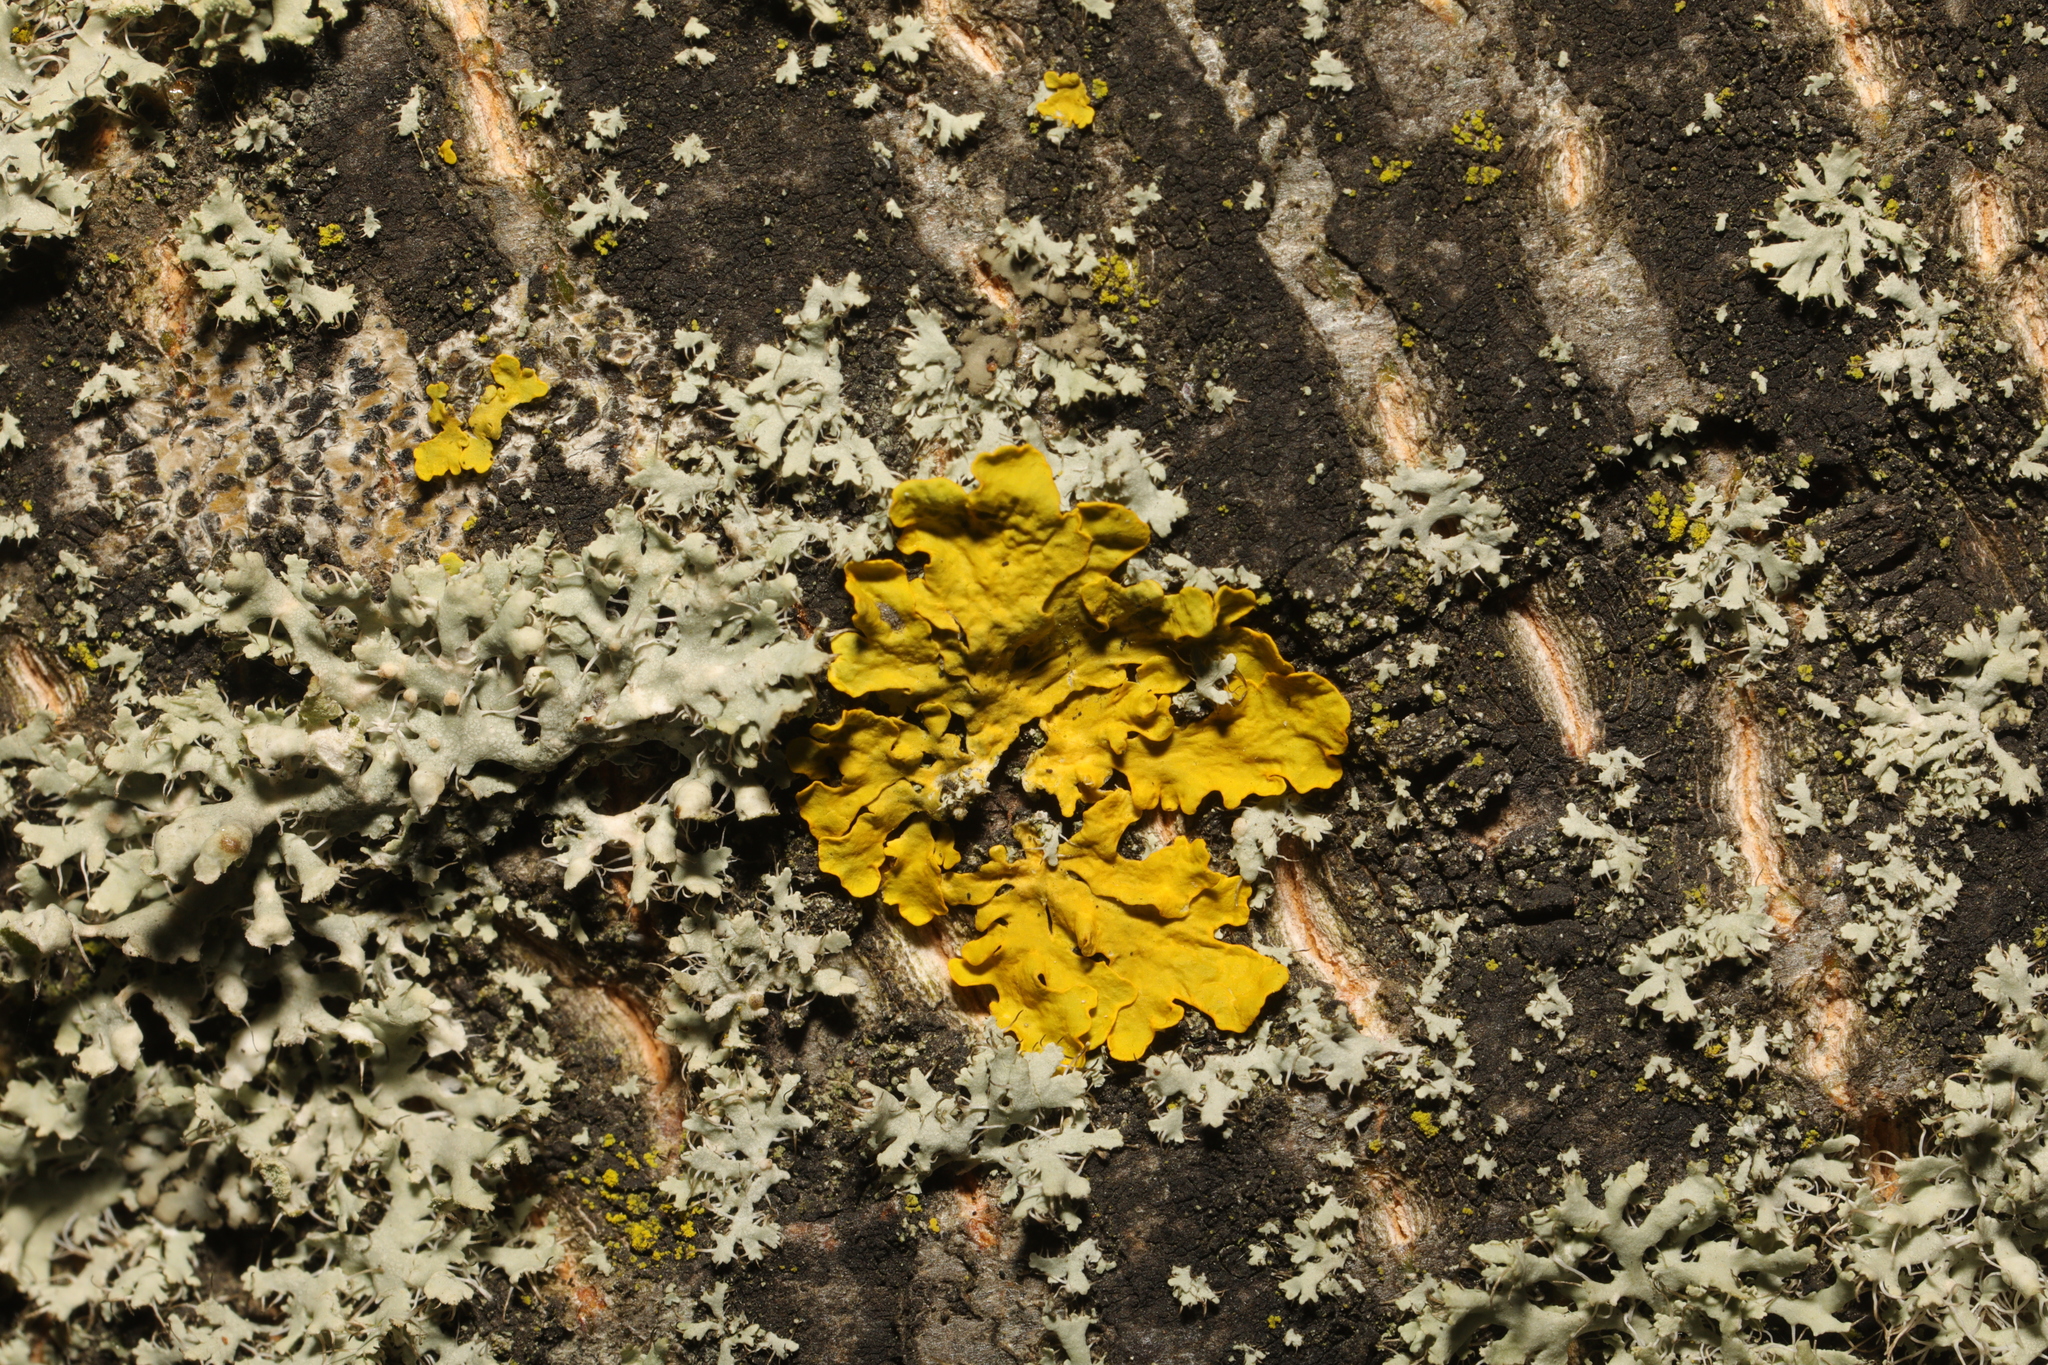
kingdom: Fungi
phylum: Ascomycota
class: Lecanoromycetes
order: Teloschistales
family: Teloschistaceae
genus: Xanthoria
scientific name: Xanthoria parietina
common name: Common orange lichen
